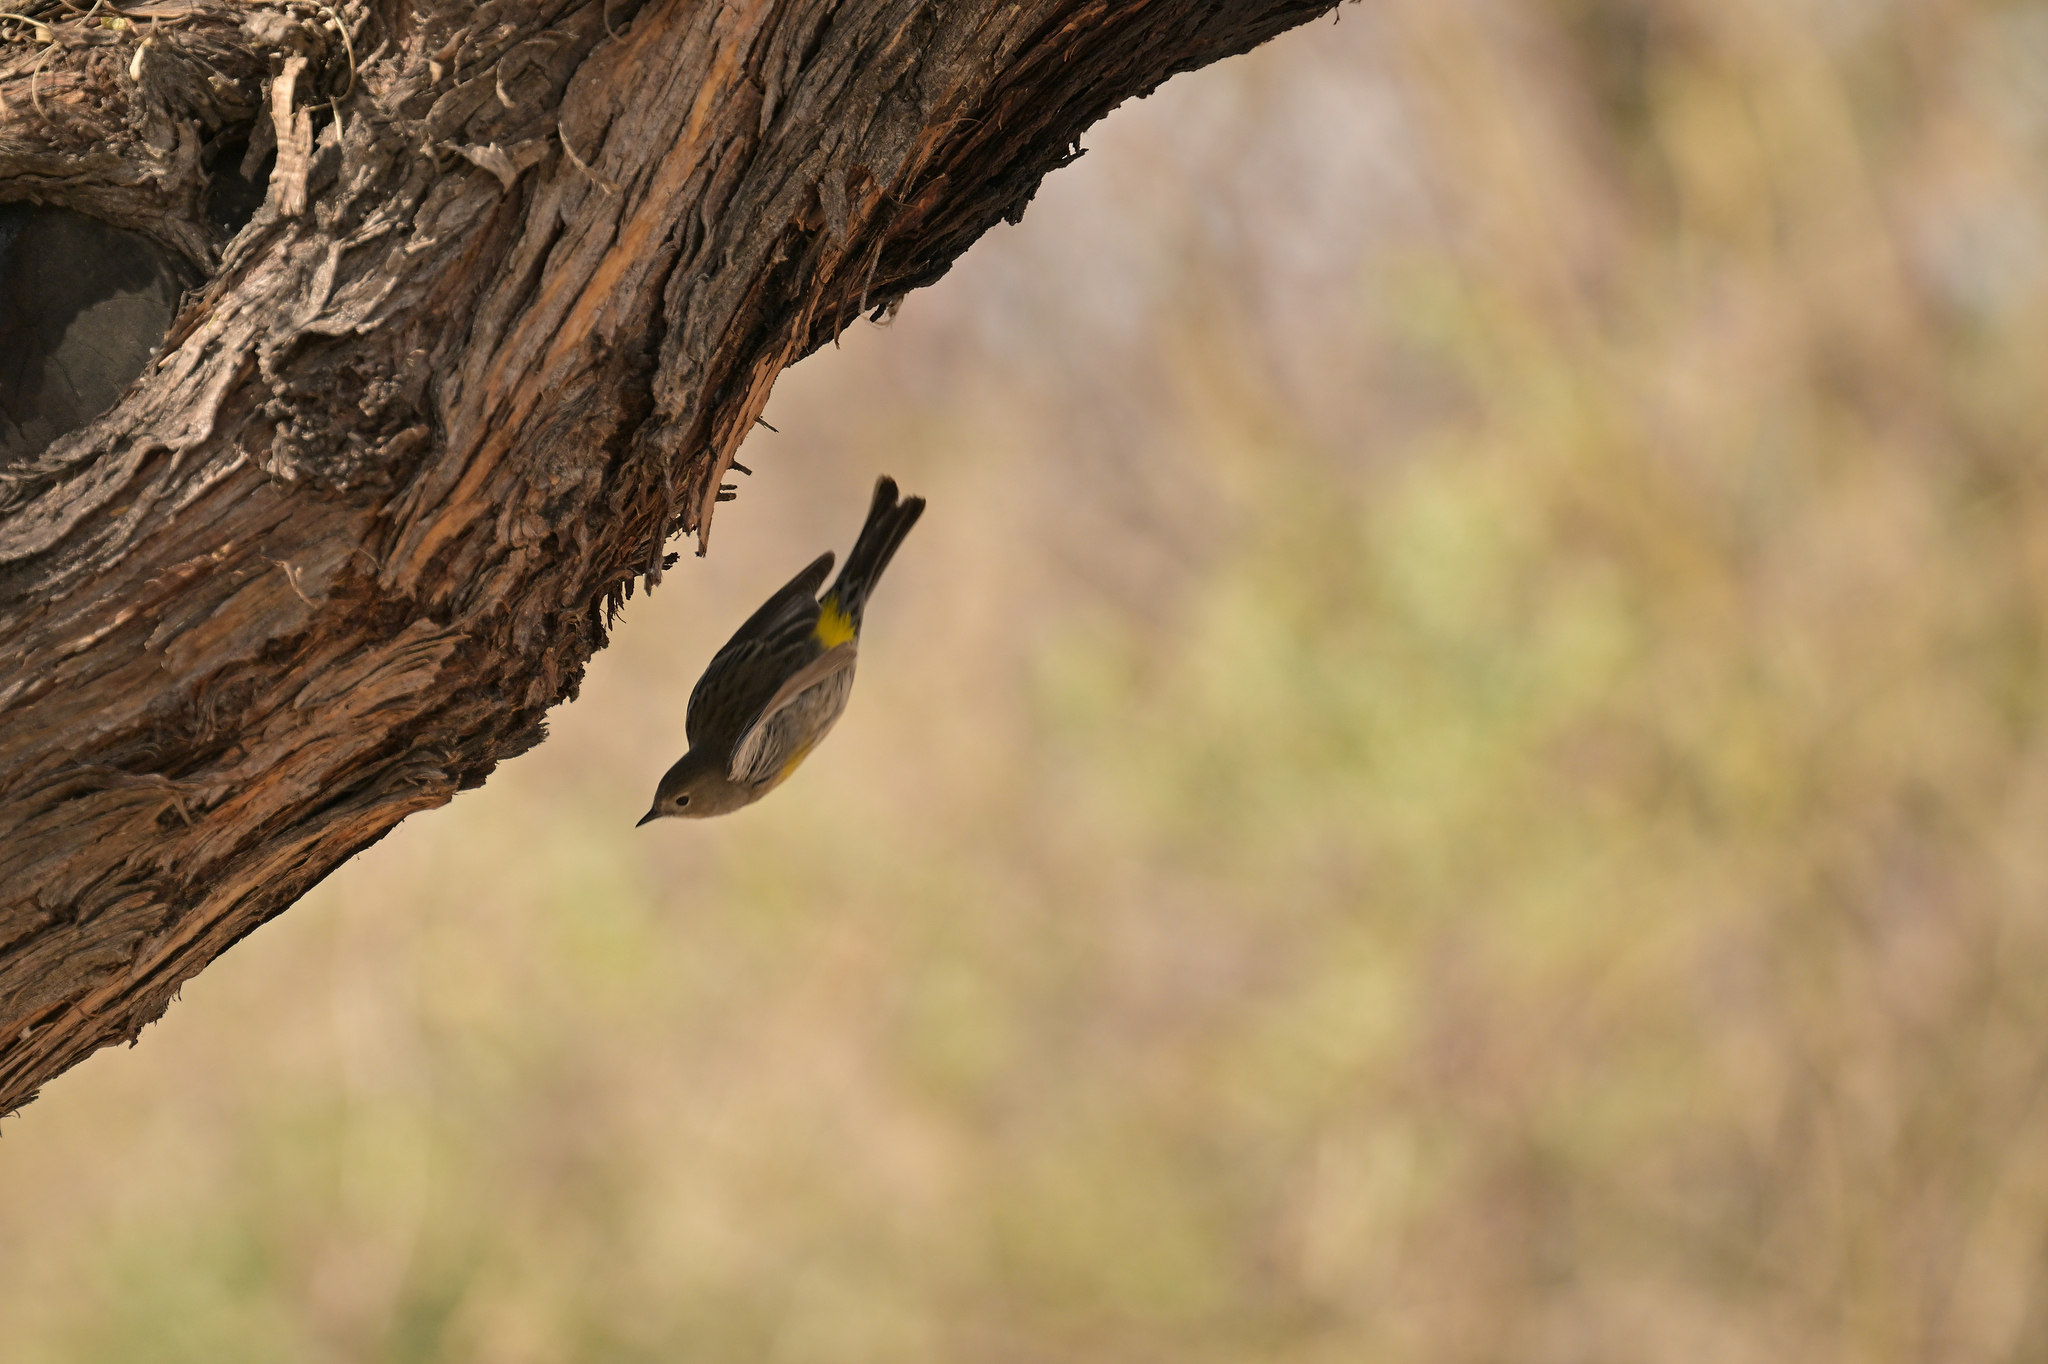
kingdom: Animalia
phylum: Chordata
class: Aves
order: Passeriformes
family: Parulidae
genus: Setophaga
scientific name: Setophaga coronata
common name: Myrtle warbler
